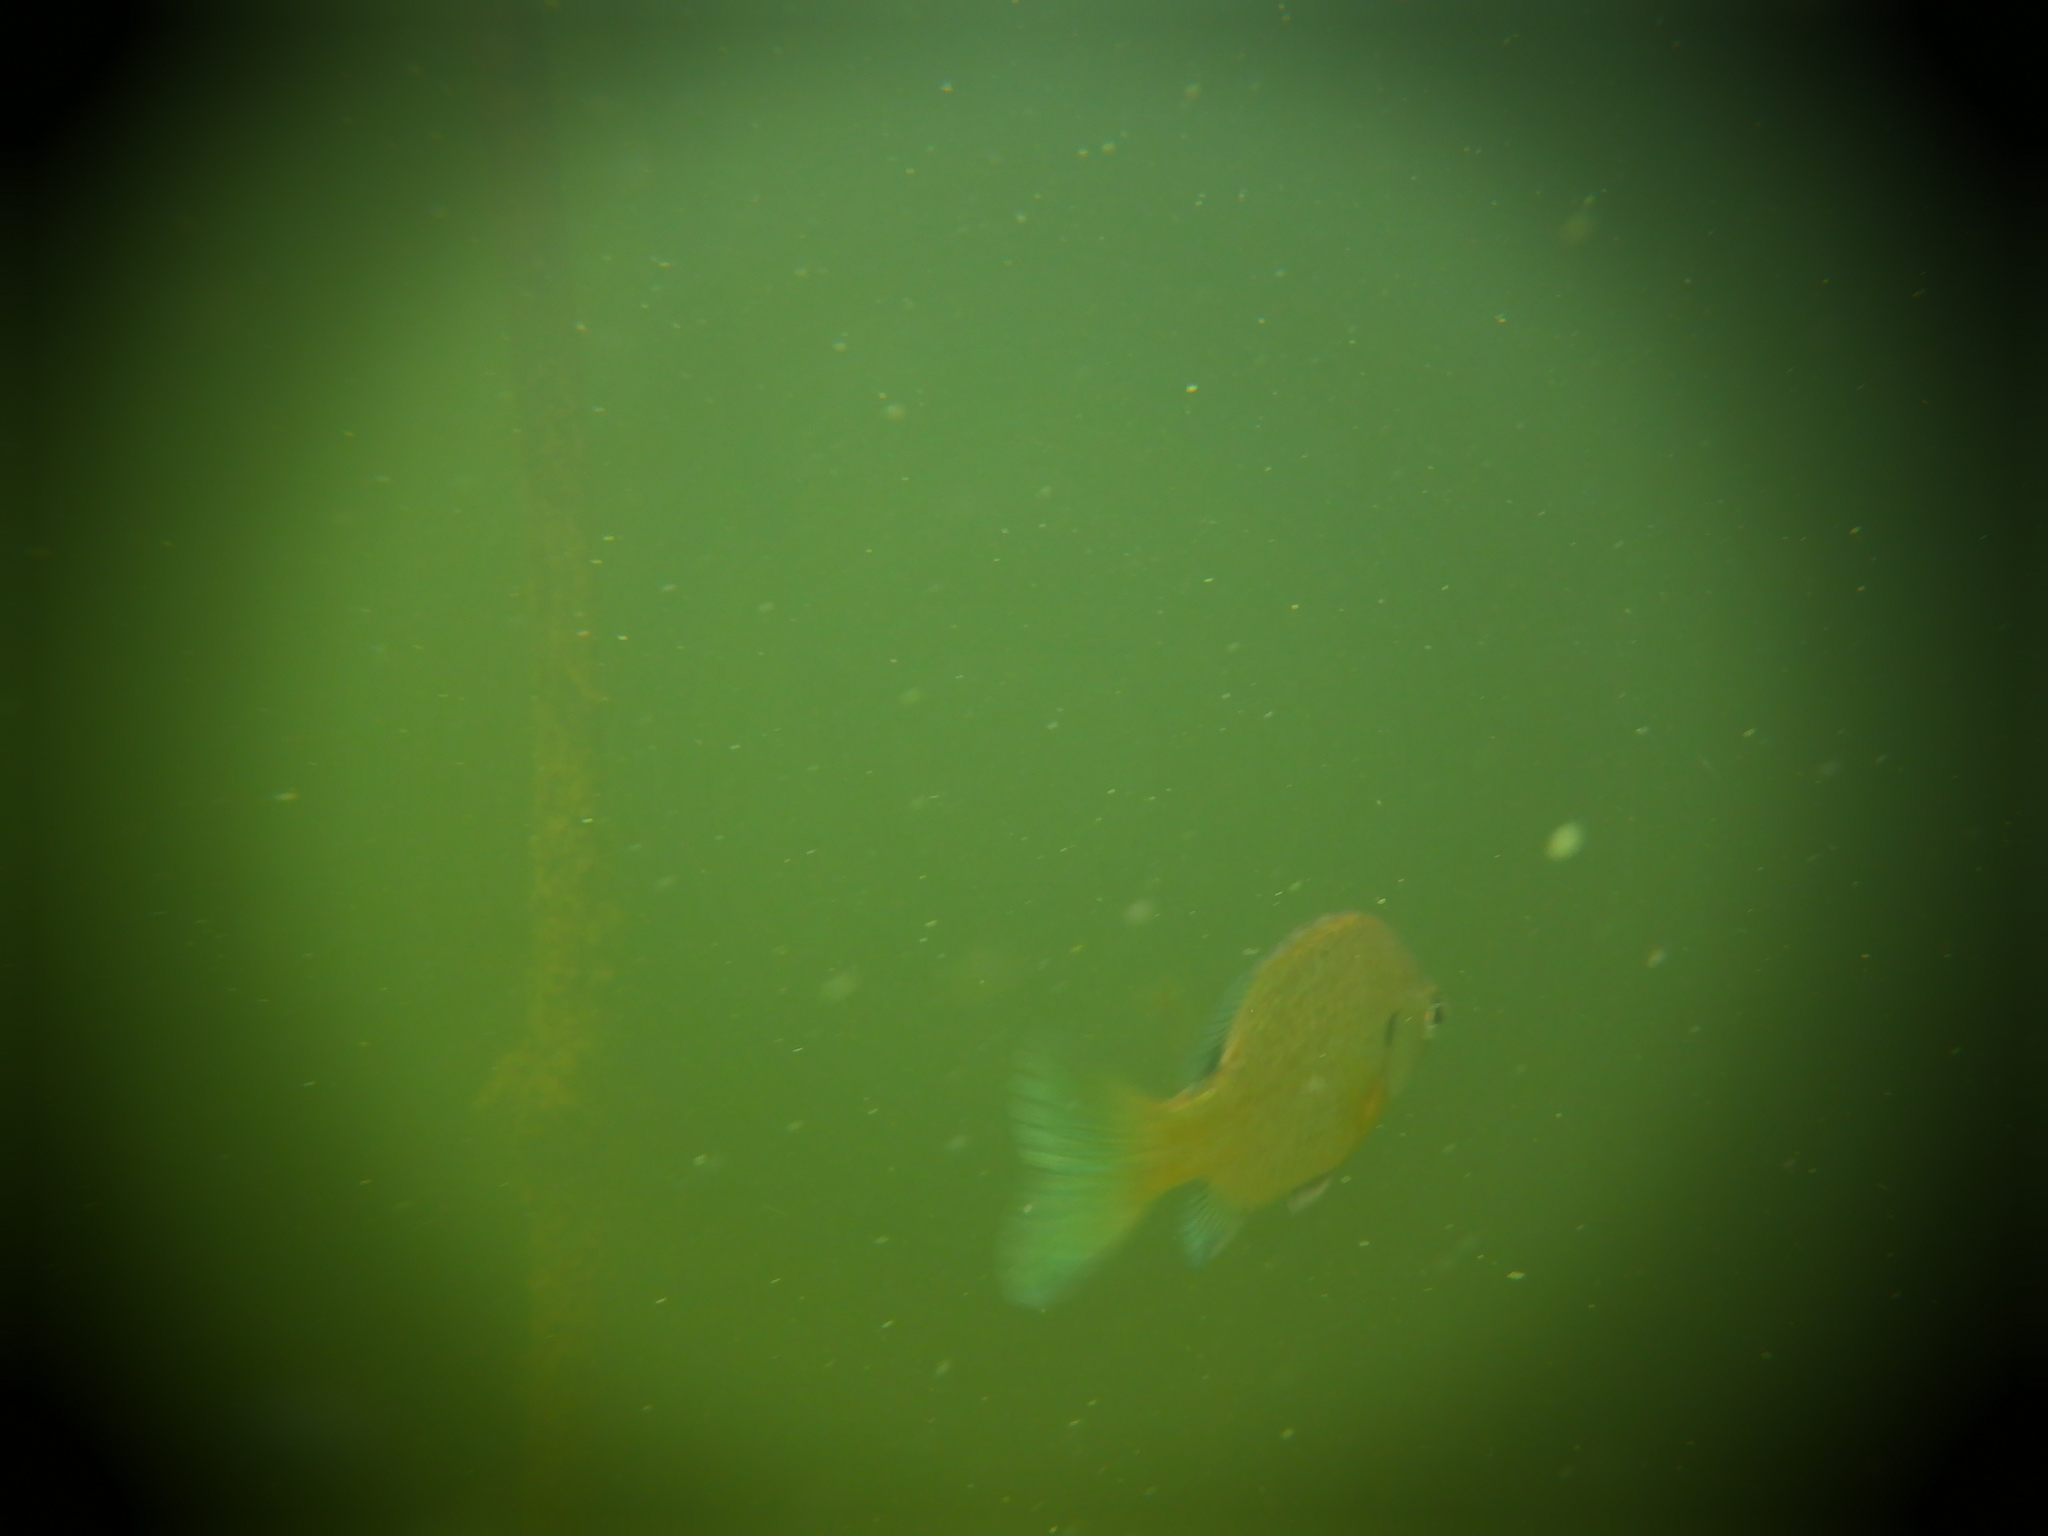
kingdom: Animalia
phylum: Chordata
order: Perciformes
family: Centrarchidae
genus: Lepomis
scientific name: Lepomis macrochirus
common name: Bluegill
